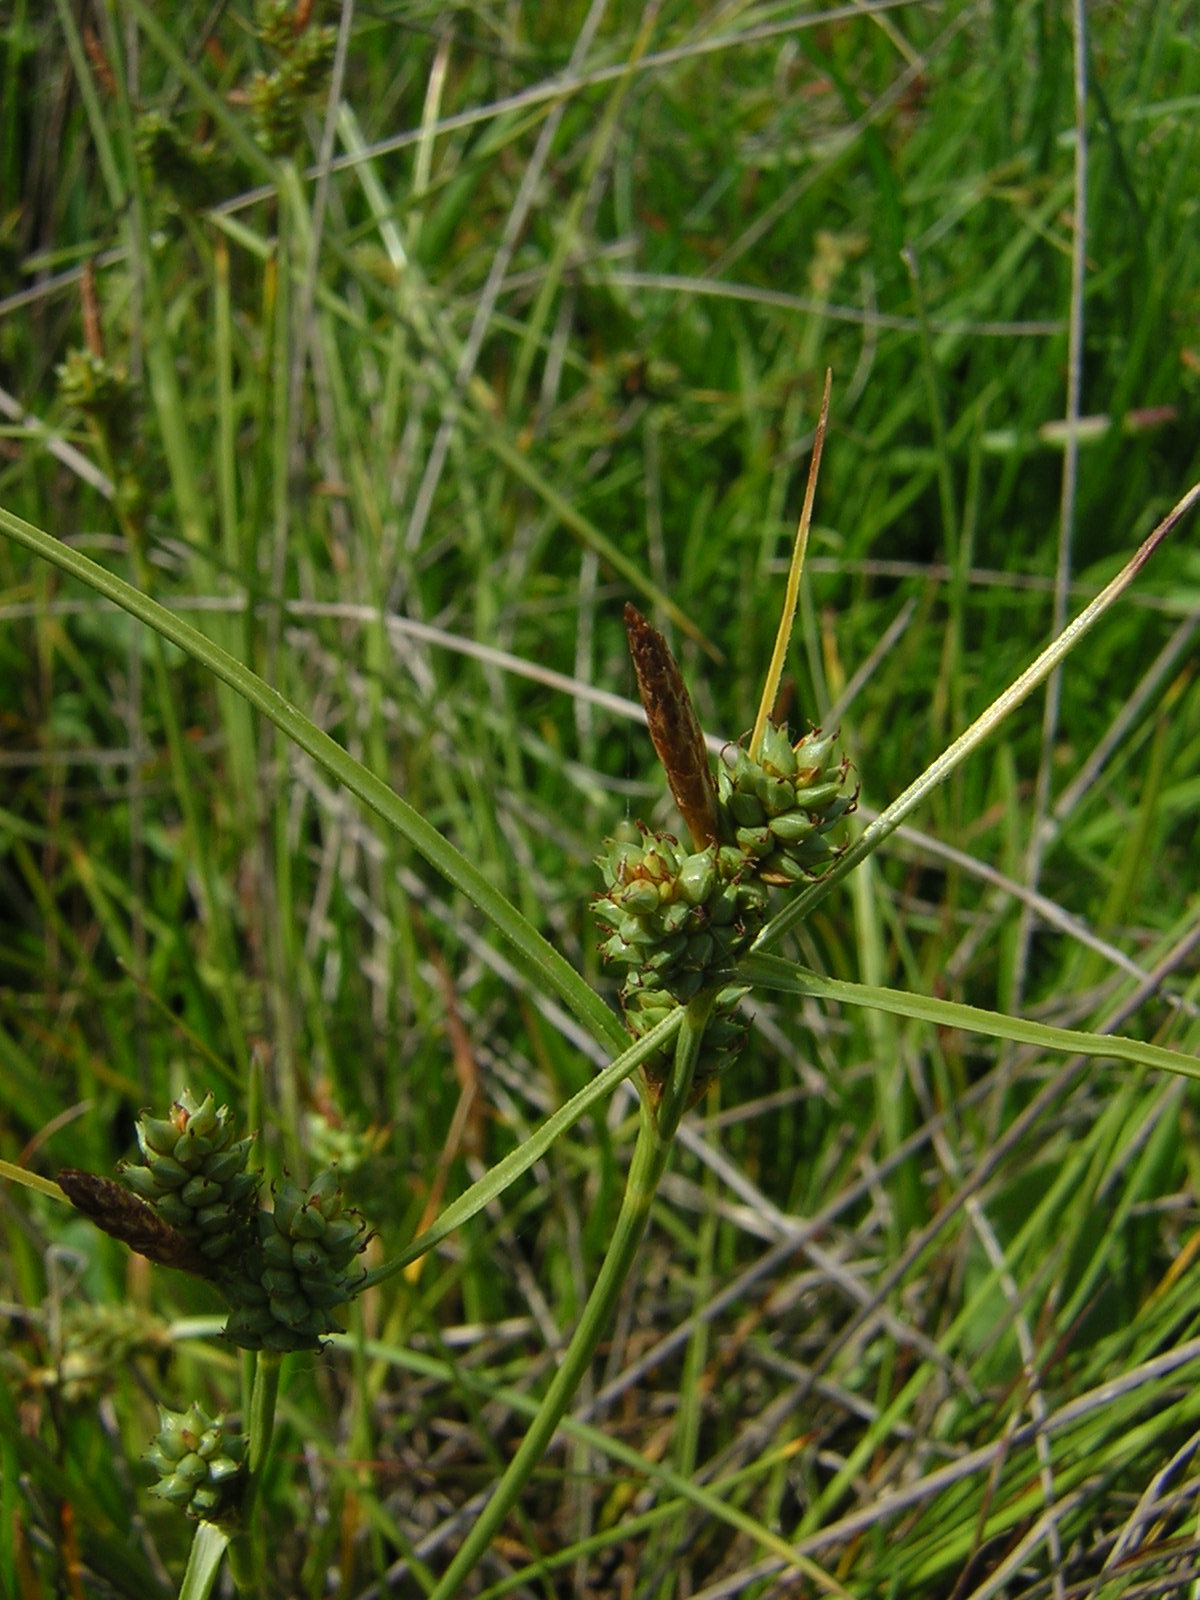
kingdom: Plantae
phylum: Tracheophyta
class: Liliopsida
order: Poales
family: Cyperaceae
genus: Carex
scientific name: Carex extensa
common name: Long-bracted sedge
